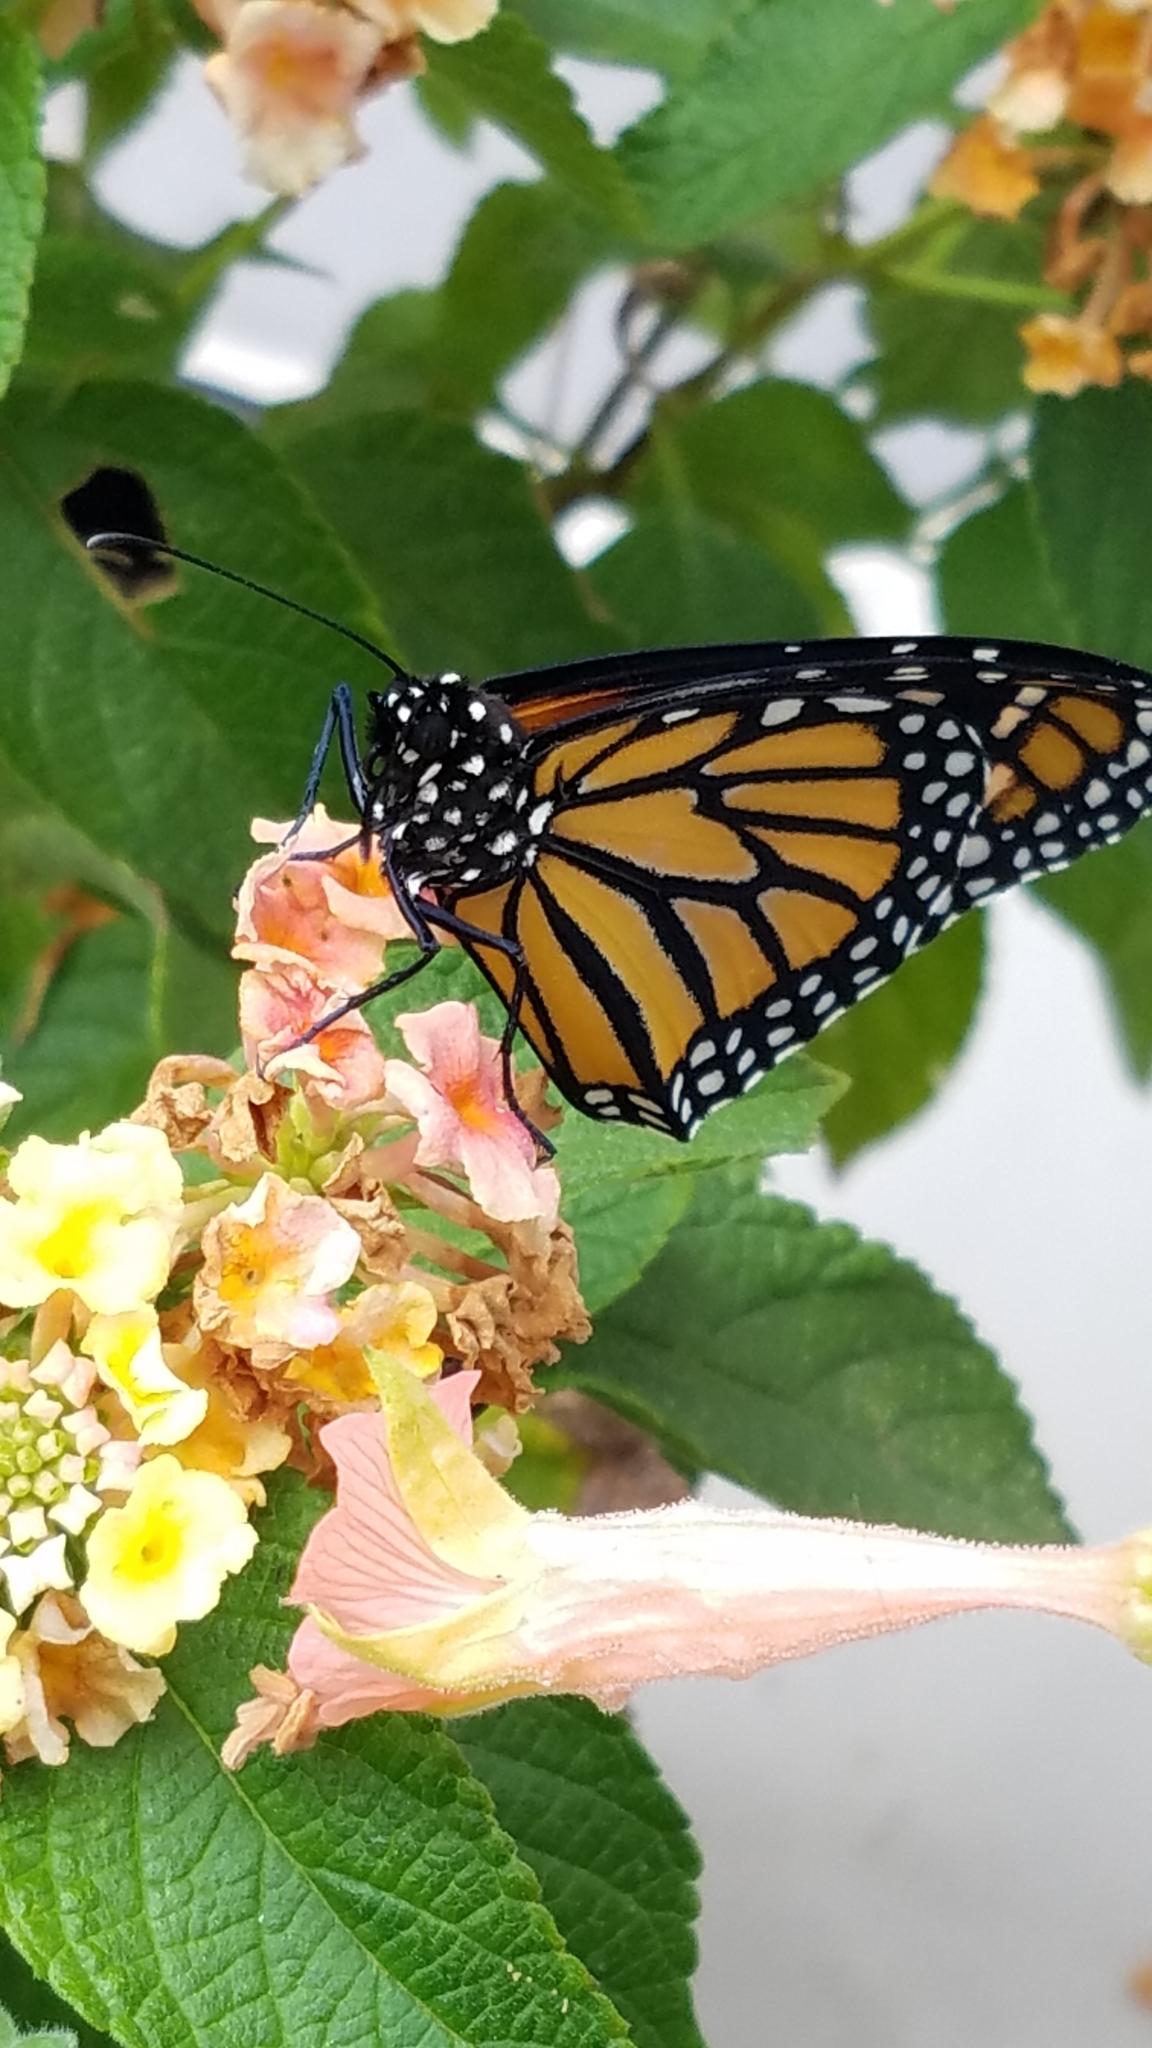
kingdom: Animalia
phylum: Arthropoda
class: Insecta
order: Lepidoptera
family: Nymphalidae
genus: Danaus
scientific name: Danaus plexippus
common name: Monarch
